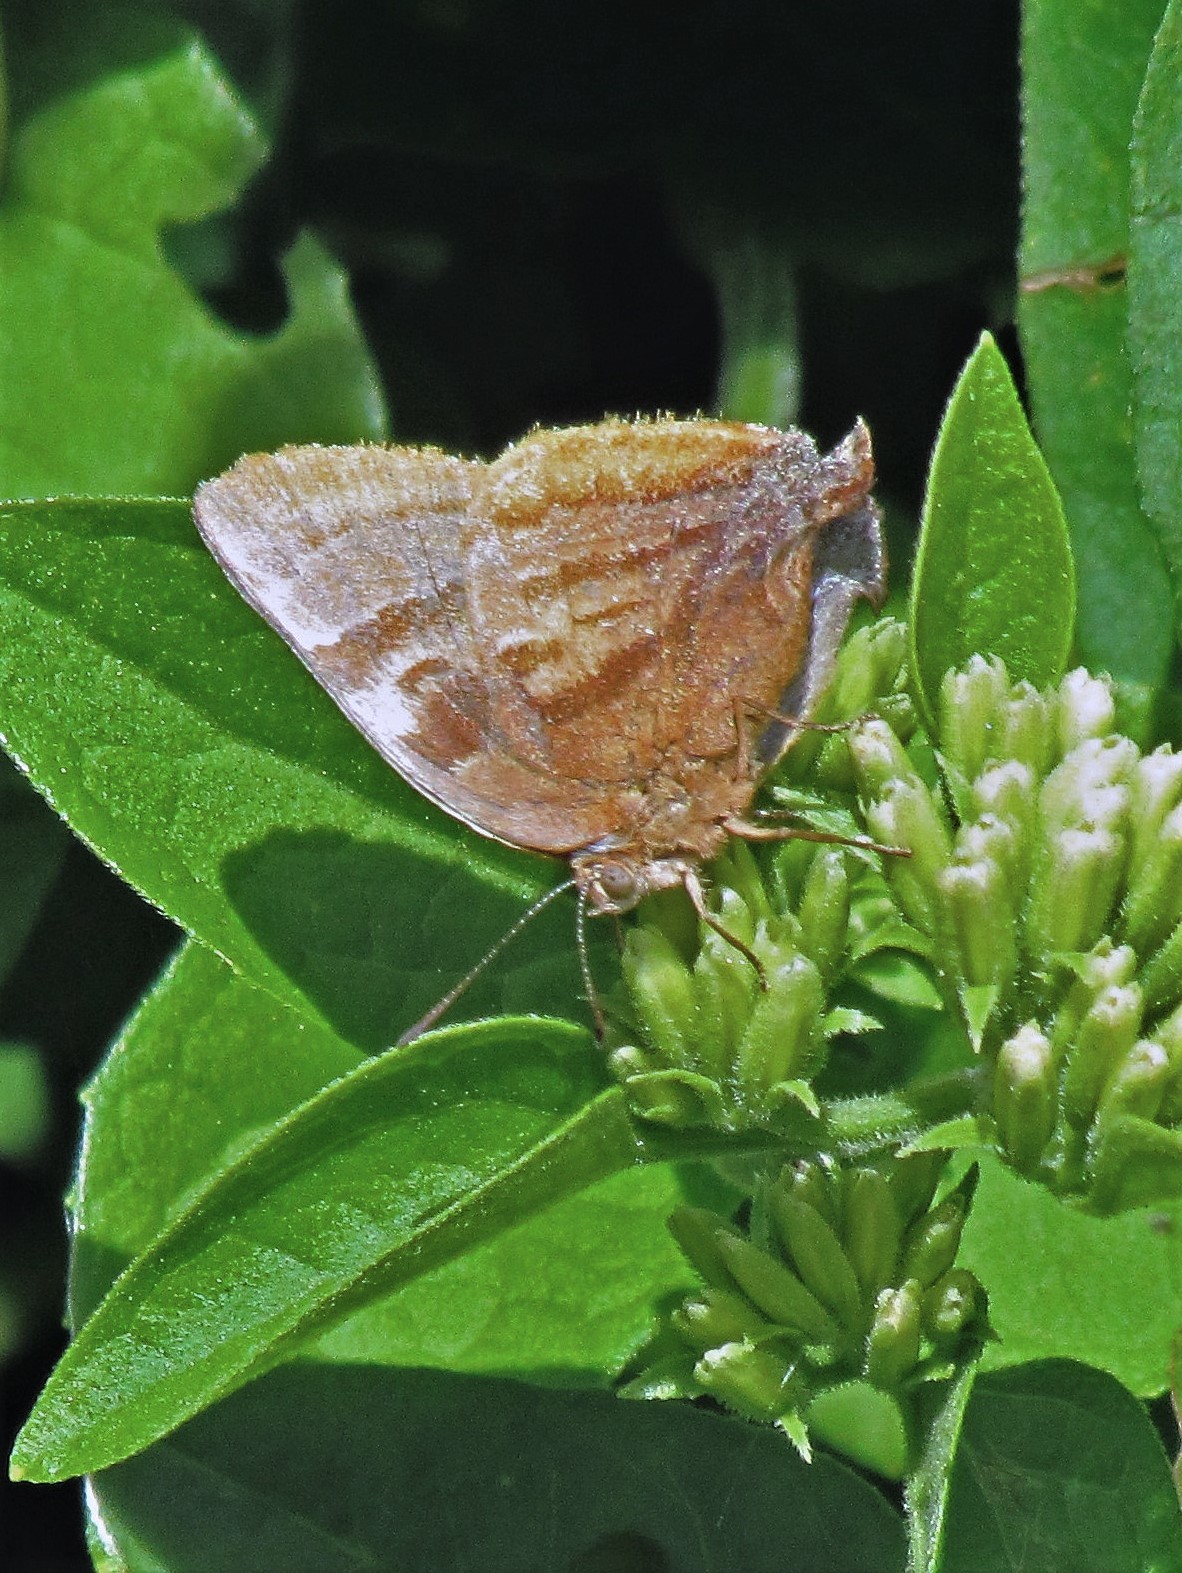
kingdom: Animalia
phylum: Arthropoda
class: Insecta
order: Lepidoptera
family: Lycaenidae
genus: Thecla
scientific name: Thecla marius
